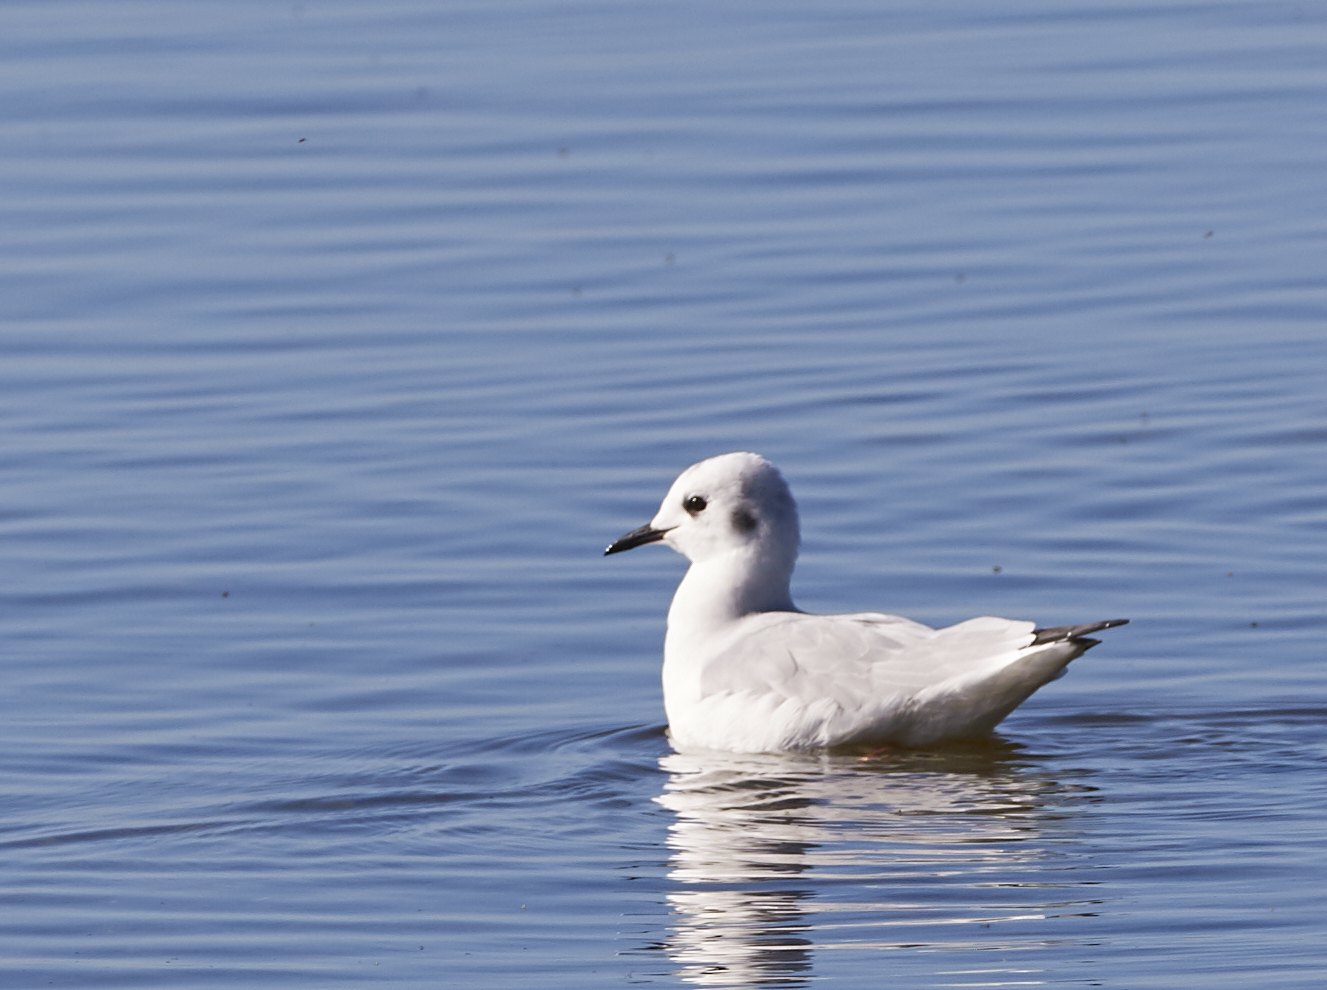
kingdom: Animalia
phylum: Chordata
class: Aves
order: Charadriiformes
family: Laridae
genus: Chroicocephalus
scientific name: Chroicocephalus philadelphia
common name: Bonaparte's gull
